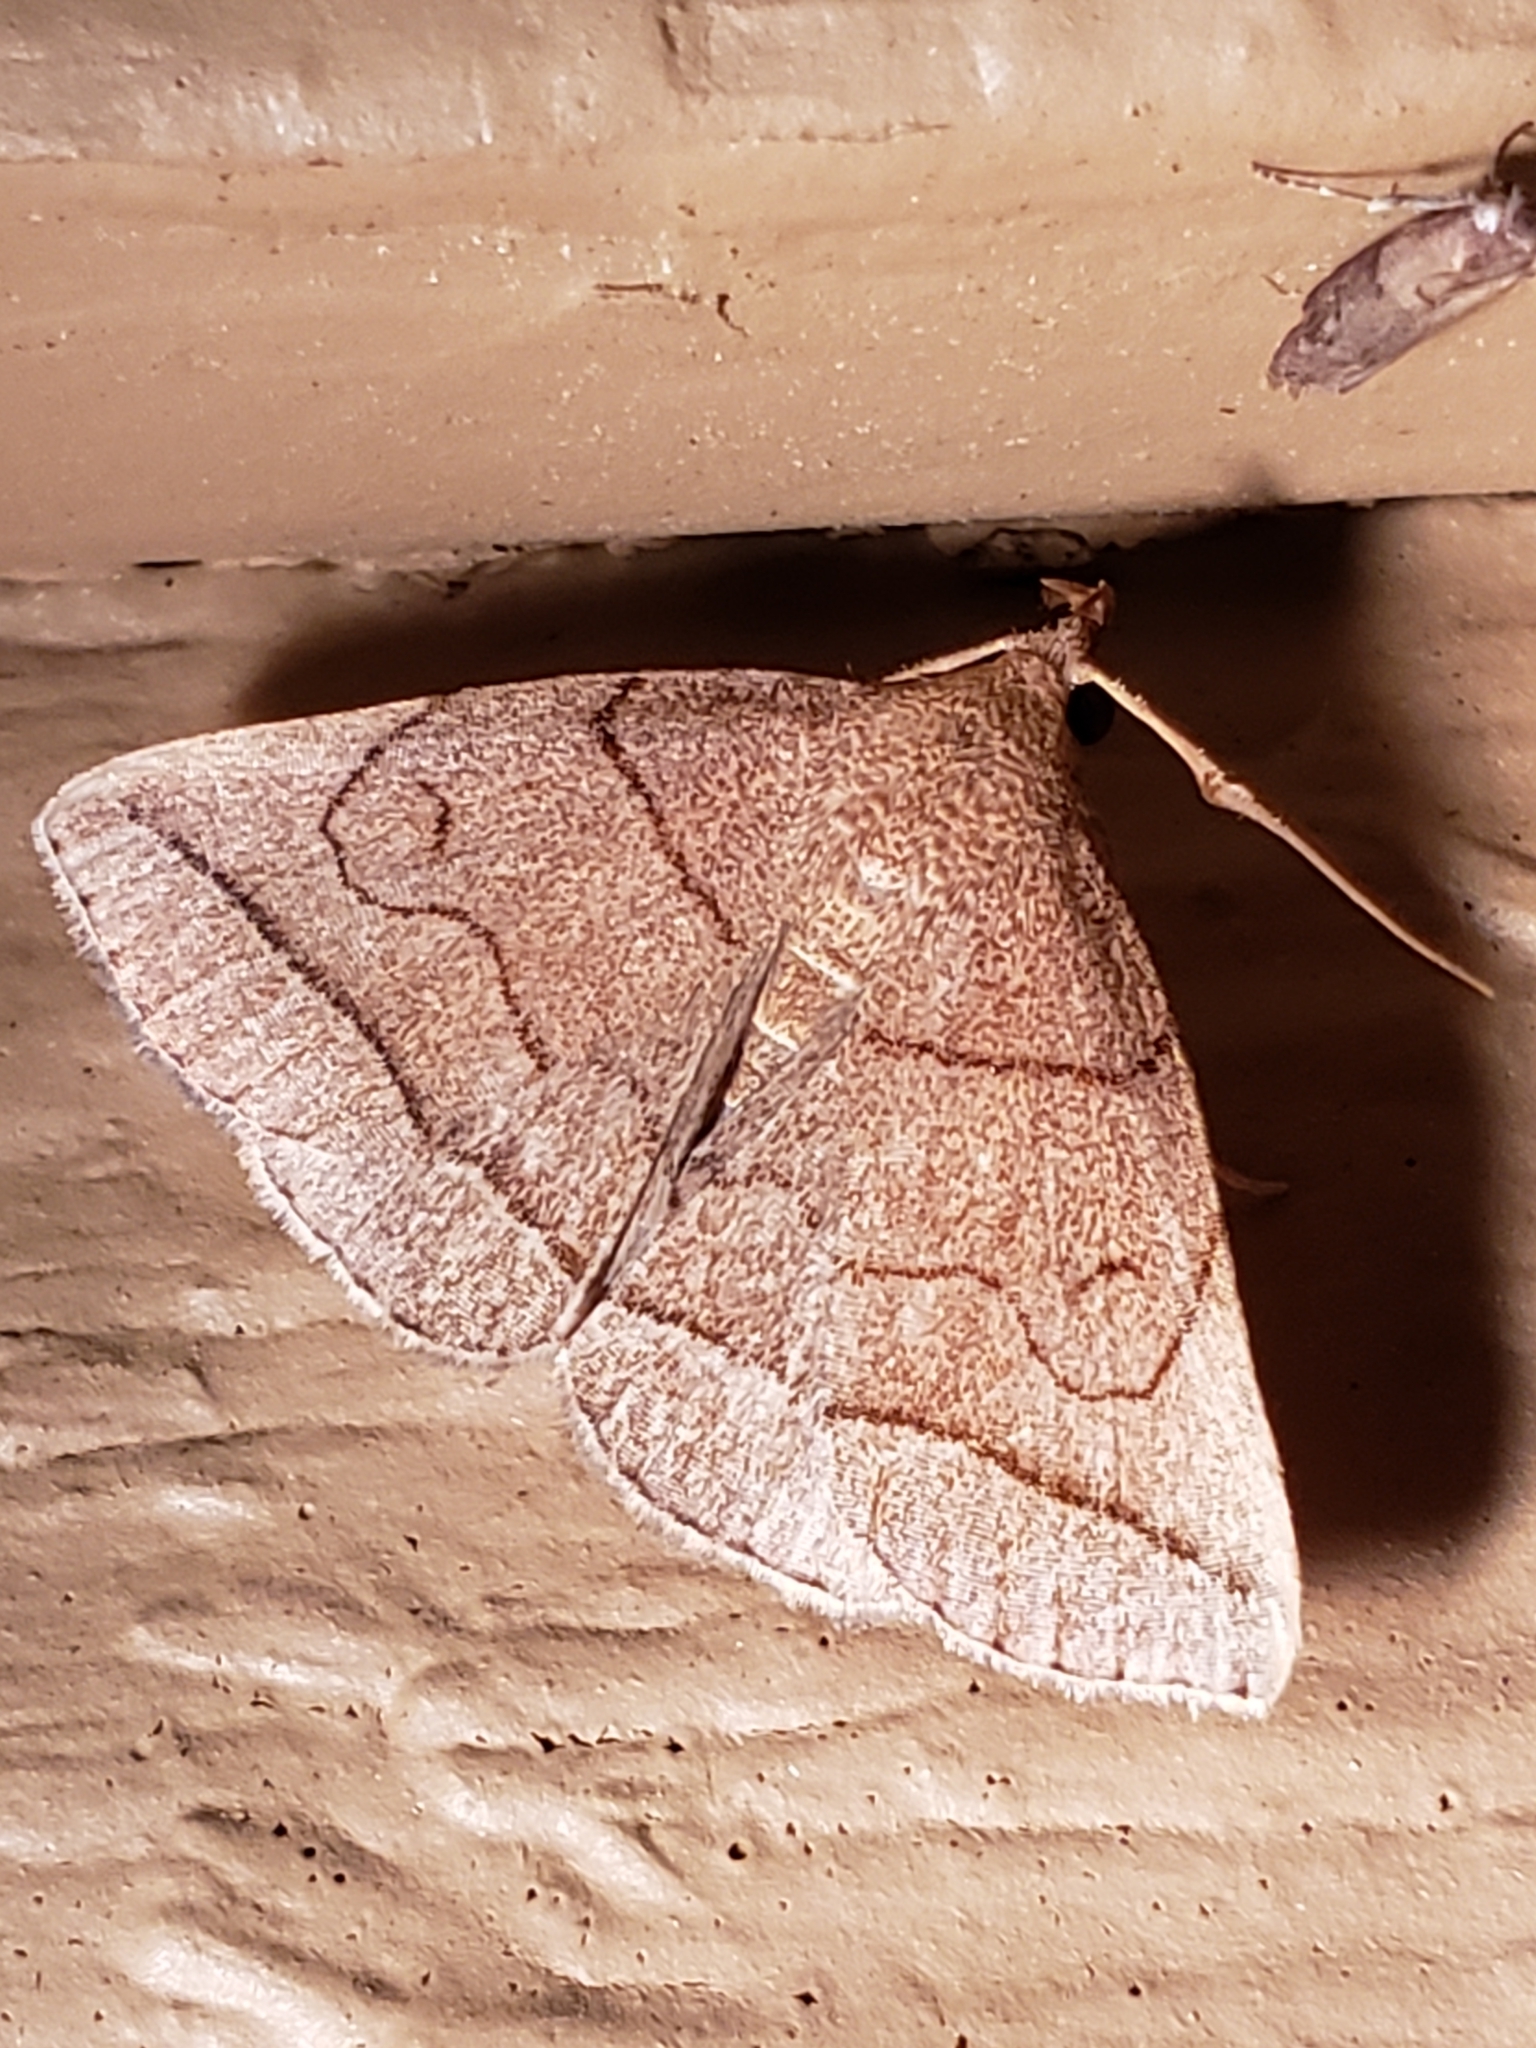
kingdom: Animalia
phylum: Arthropoda
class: Insecta
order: Lepidoptera
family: Erebidae
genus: Zanclognatha
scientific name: Zanclognatha cruralis
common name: Early fan-foot
